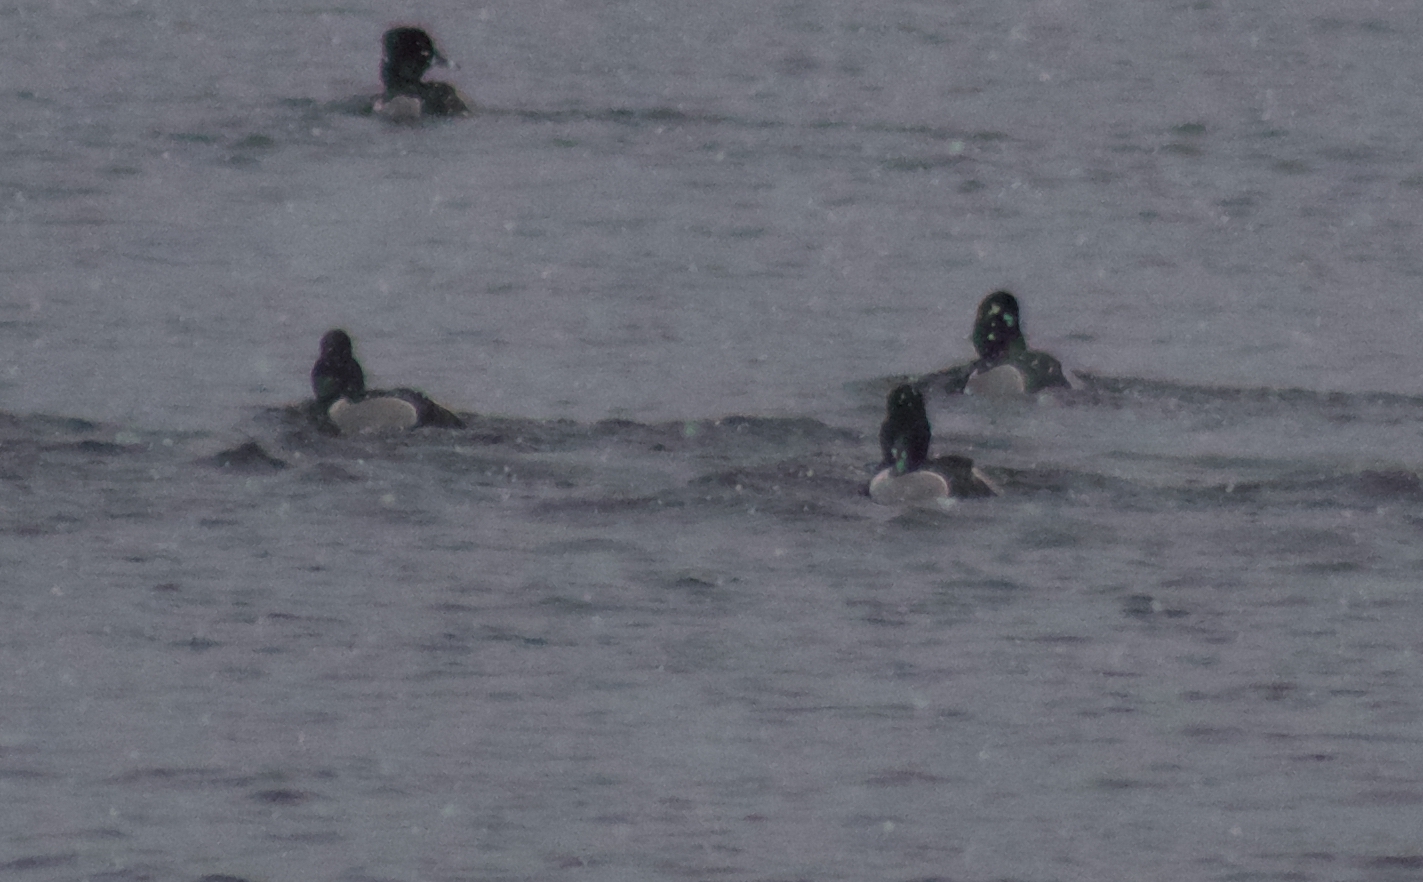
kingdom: Animalia
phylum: Chordata
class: Aves
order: Anseriformes
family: Anatidae
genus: Aythya
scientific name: Aythya collaris
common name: Ring-necked duck
